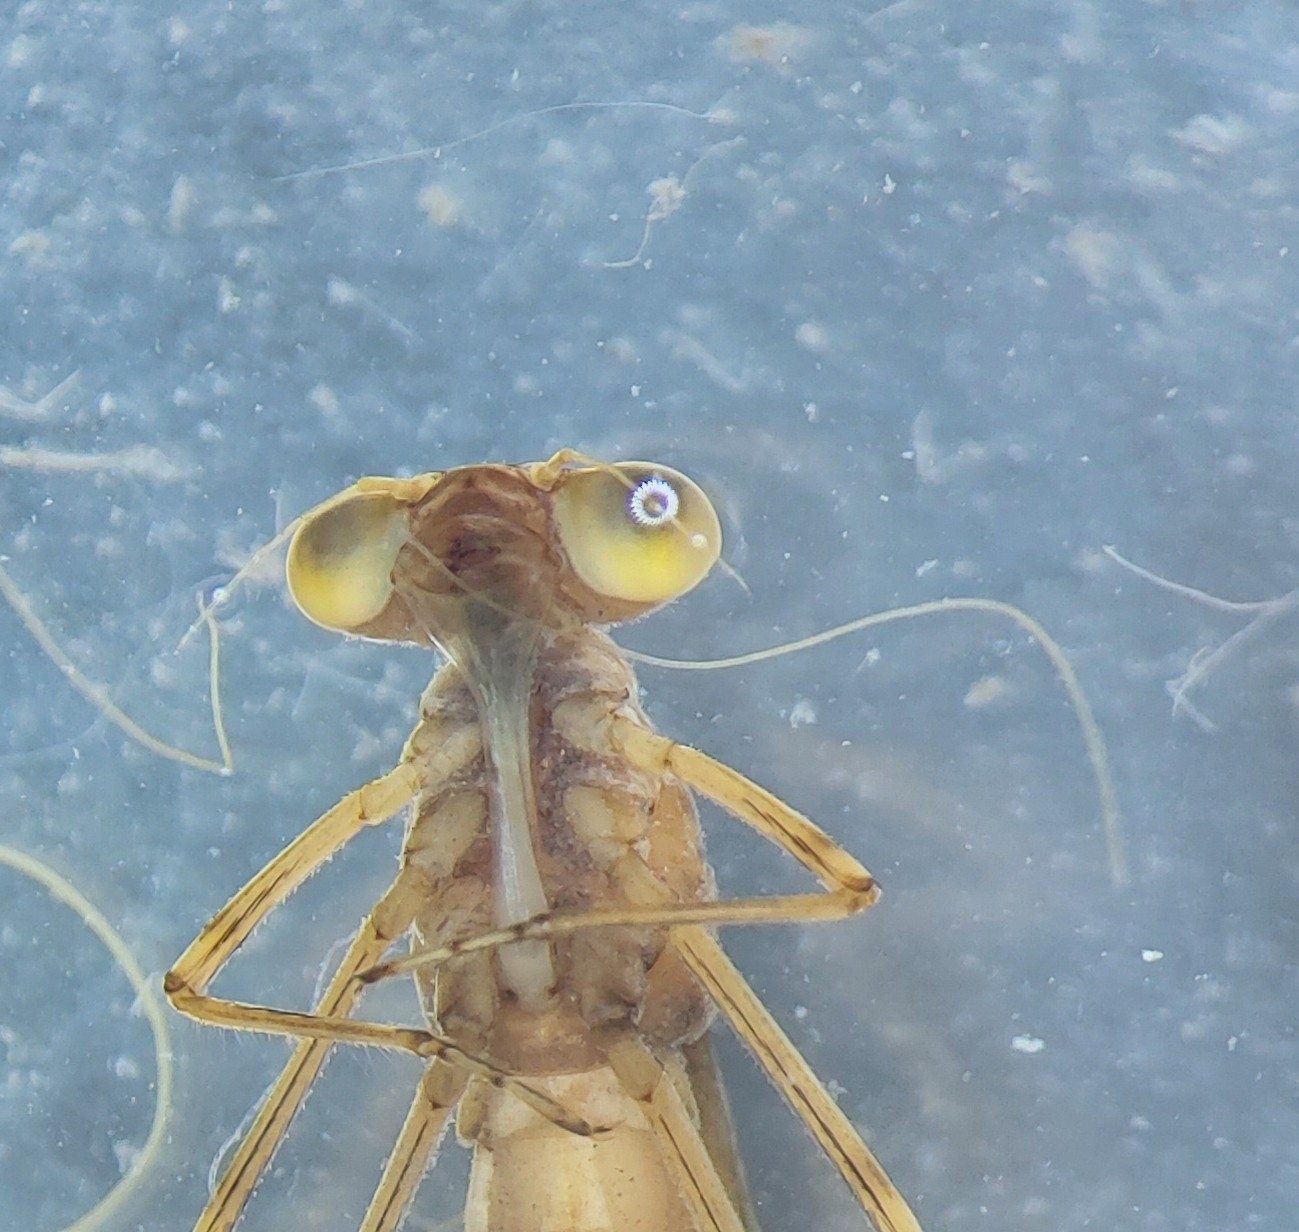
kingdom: Animalia
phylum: Arthropoda
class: Insecta
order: Odonata
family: Lestidae
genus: Lestes
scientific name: Lestes sponsa
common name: Common spreadwing
